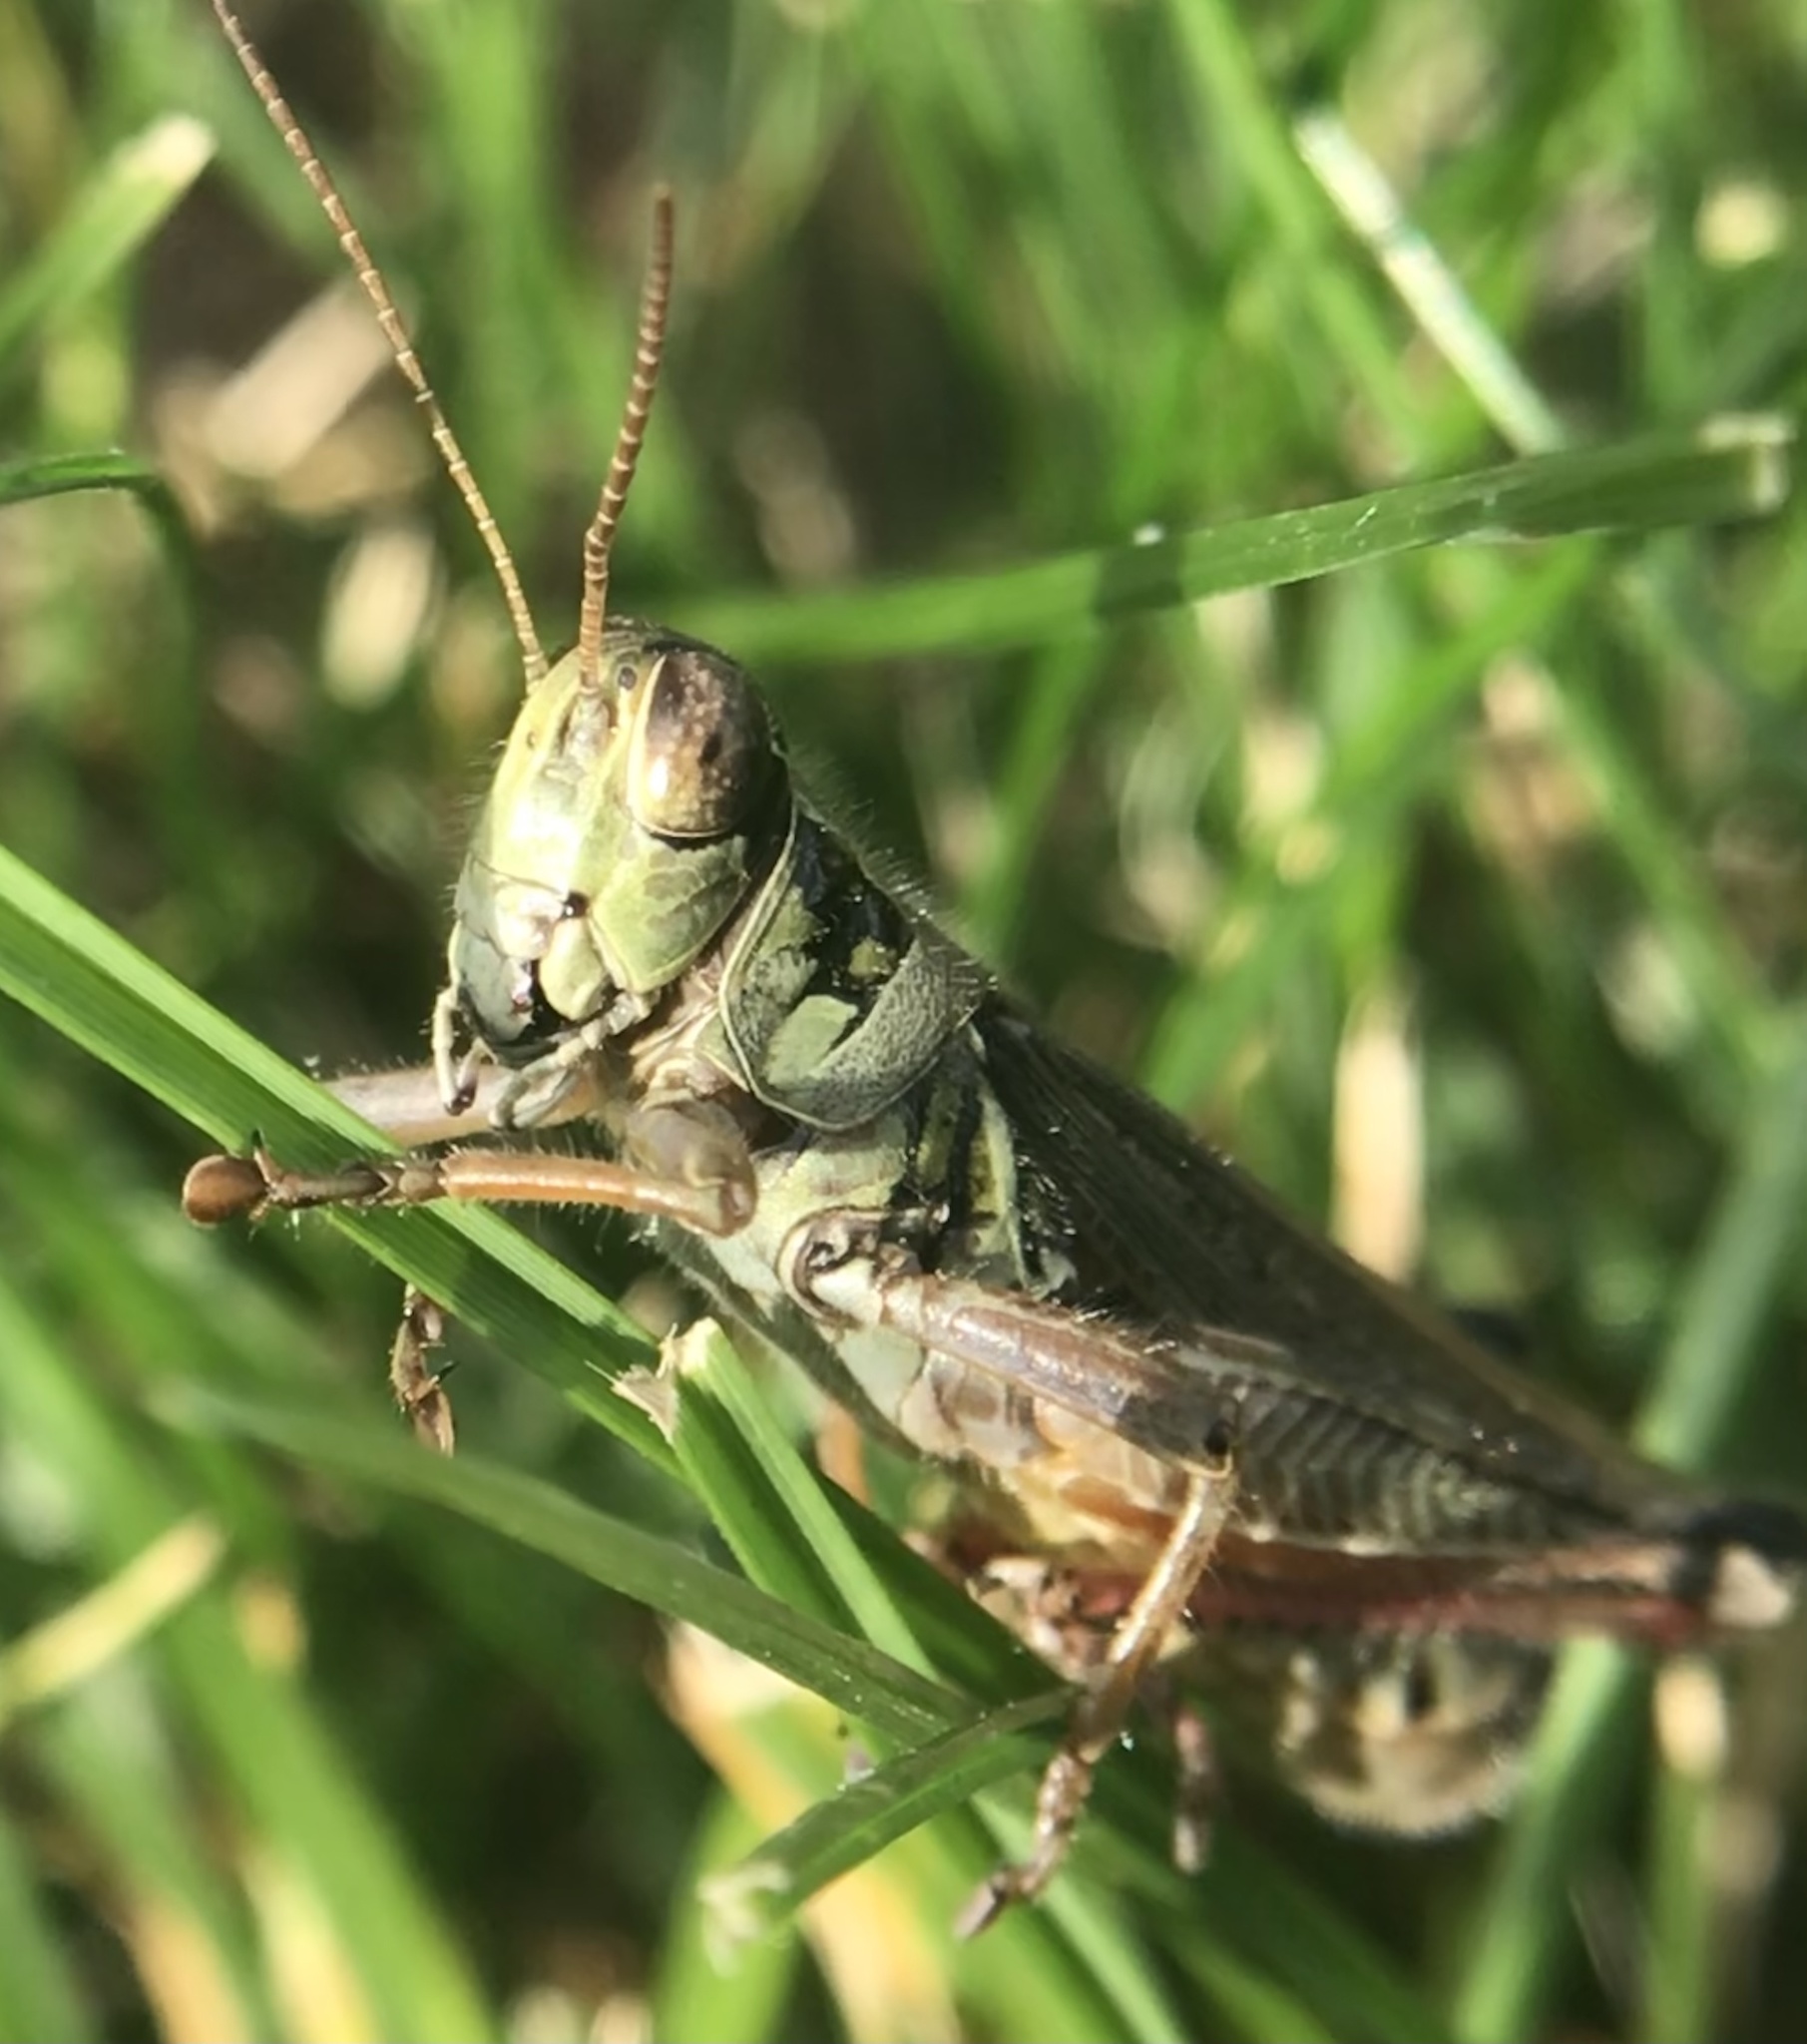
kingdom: Animalia
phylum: Arthropoda
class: Insecta
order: Orthoptera
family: Acrididae
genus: Melanoplus
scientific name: Melanoplus femurrubrum
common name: Red-legged grasshopper
